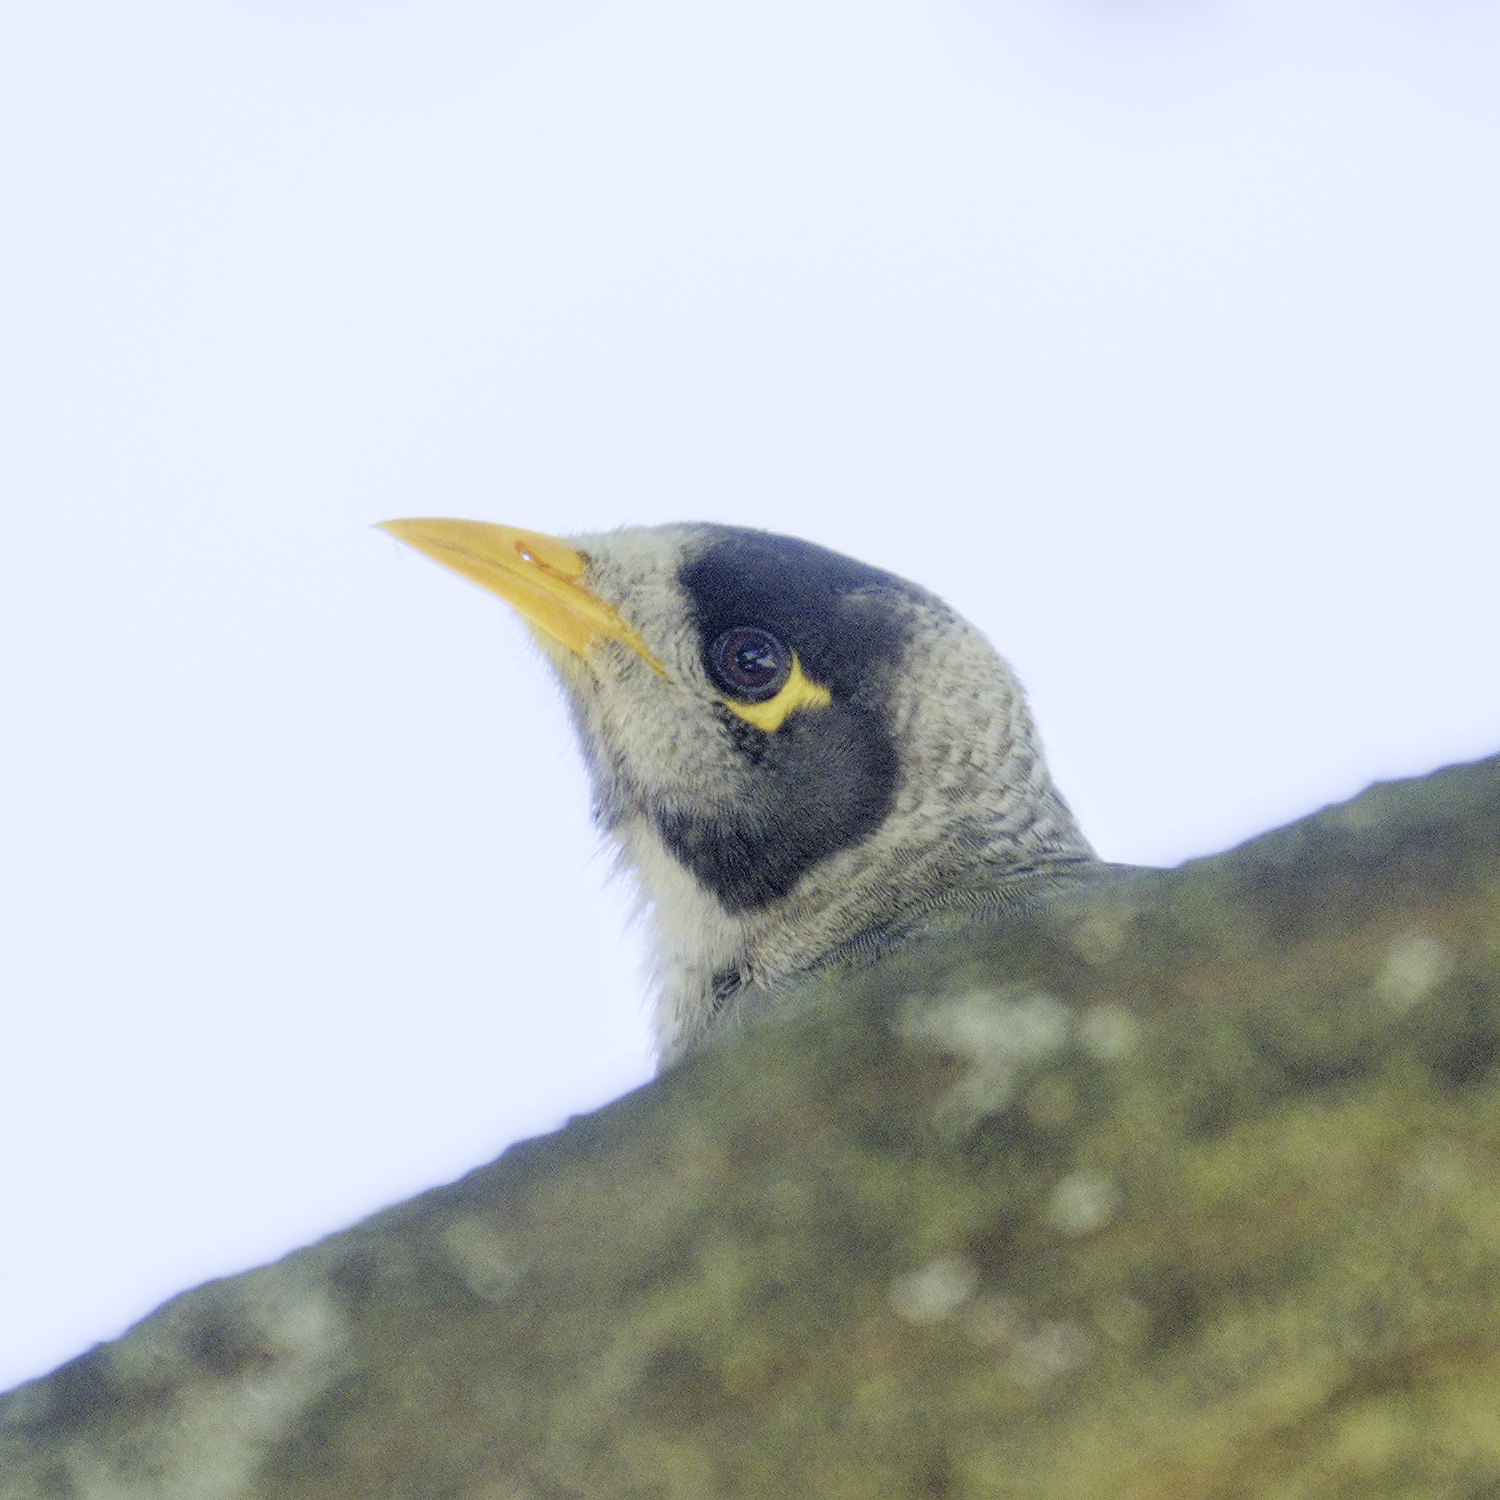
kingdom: Animalia
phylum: Chordata
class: Aves
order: Passeriformes
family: Meliphagidae
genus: Manorina
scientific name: Manorina melanocephala
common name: Noisy miner
